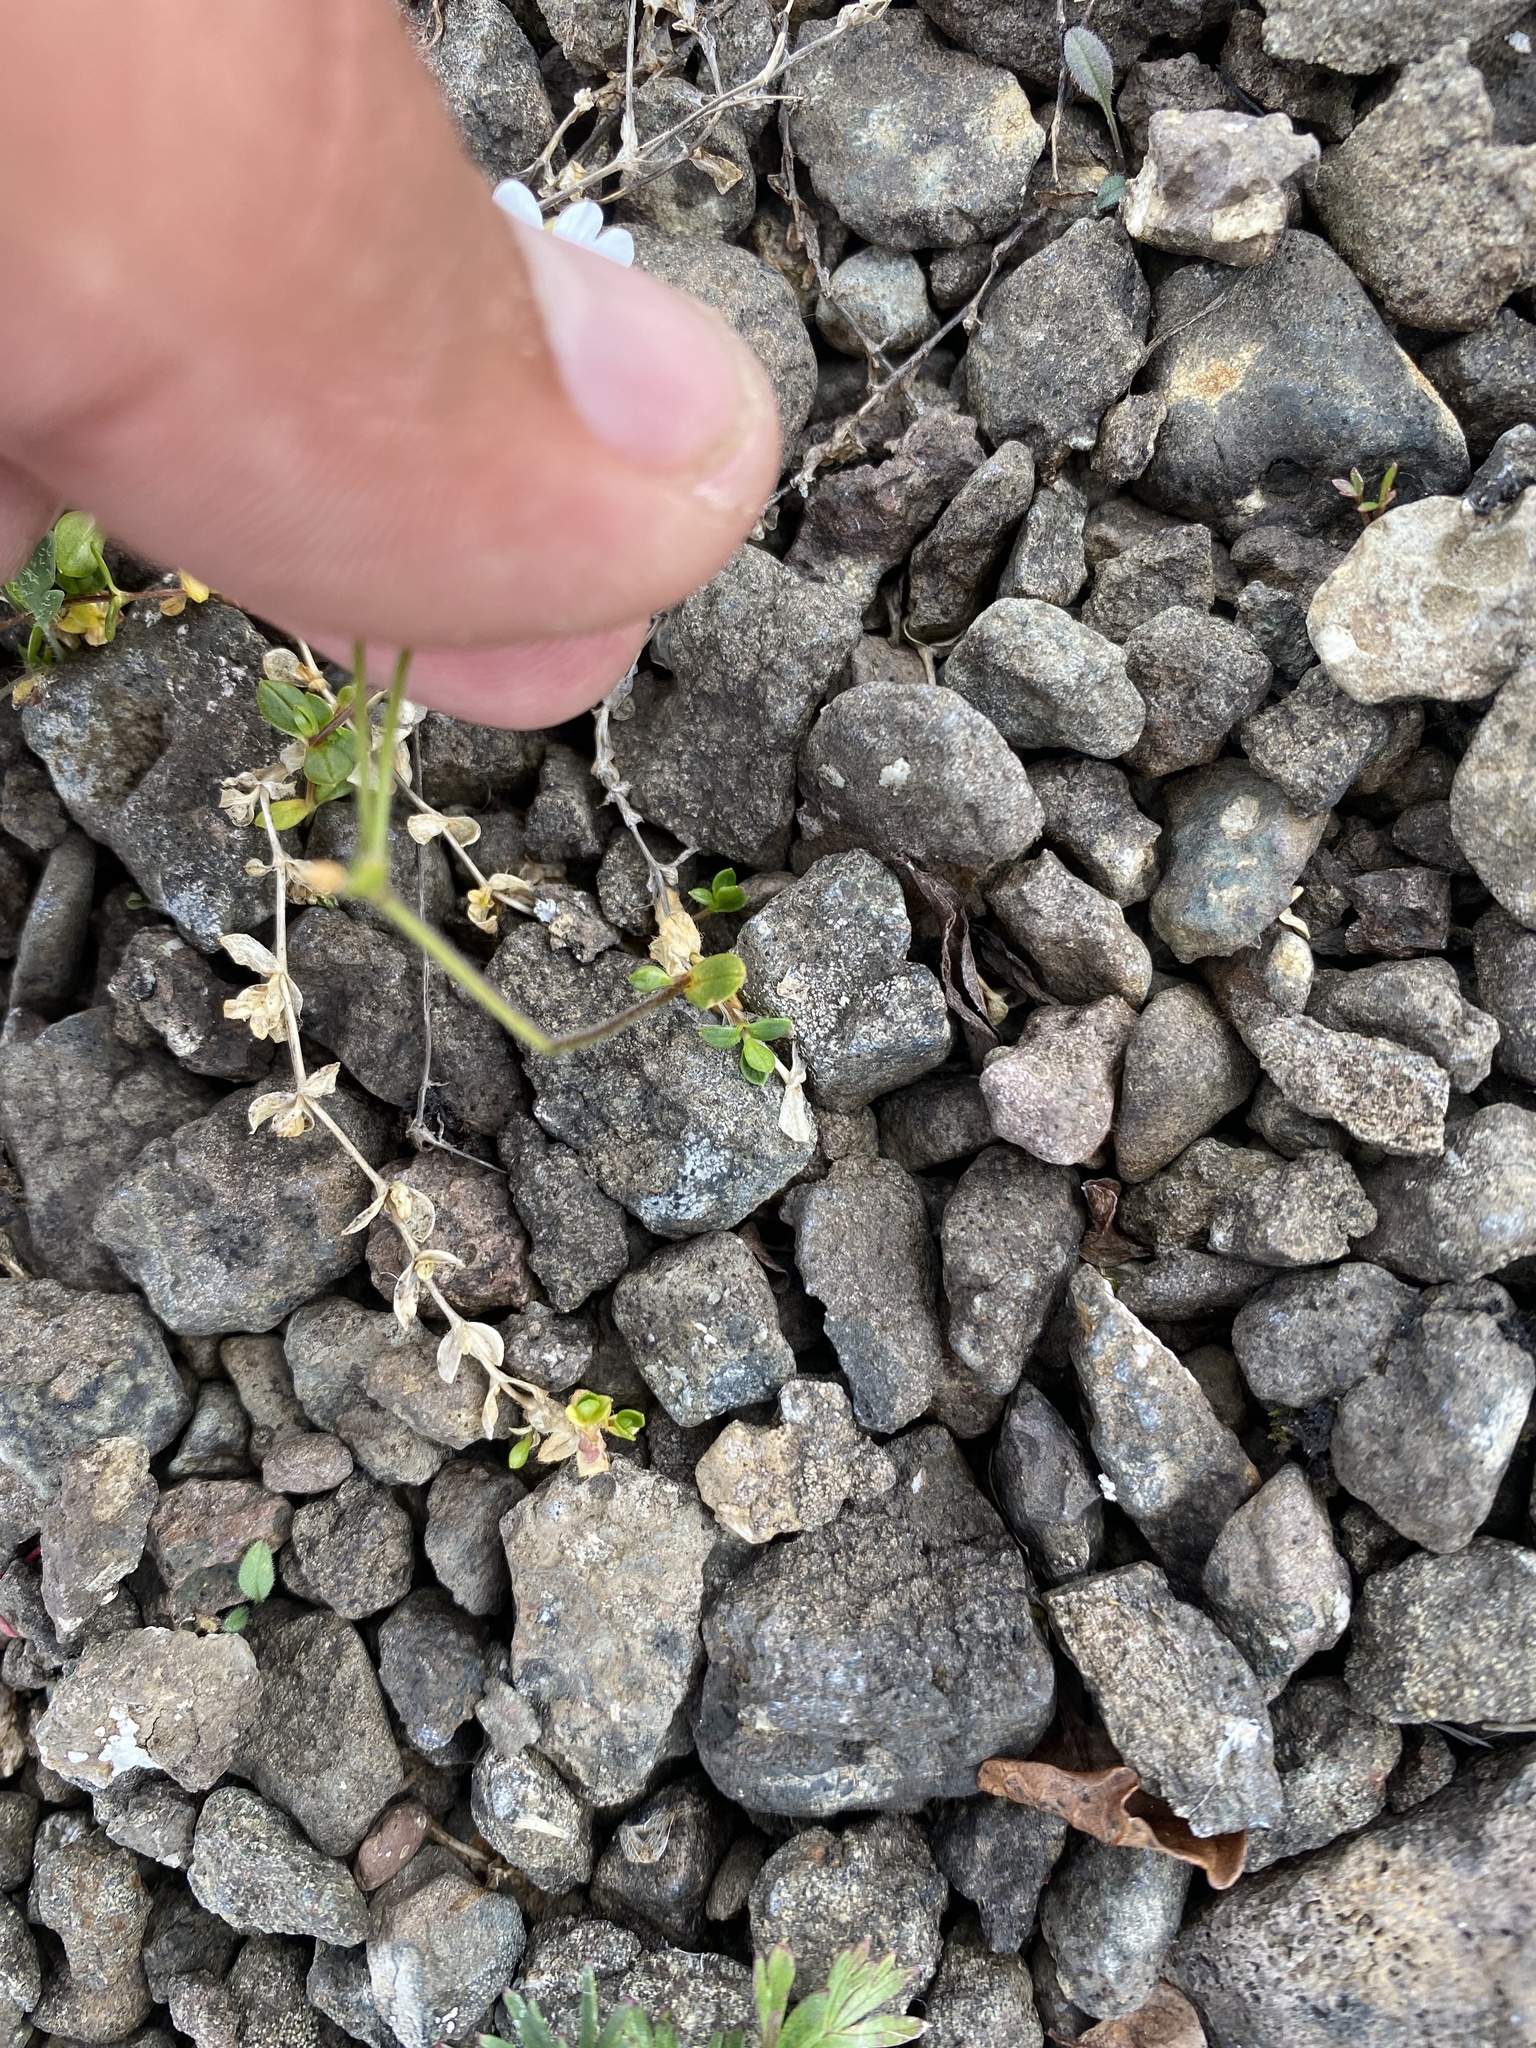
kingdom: Plantae
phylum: Tracheophyta
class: Magnoliopsida
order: Caryophyllales
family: Caryophyllaceae
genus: Cerastium
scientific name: Cerastium regelii
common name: Regel's chickweed
